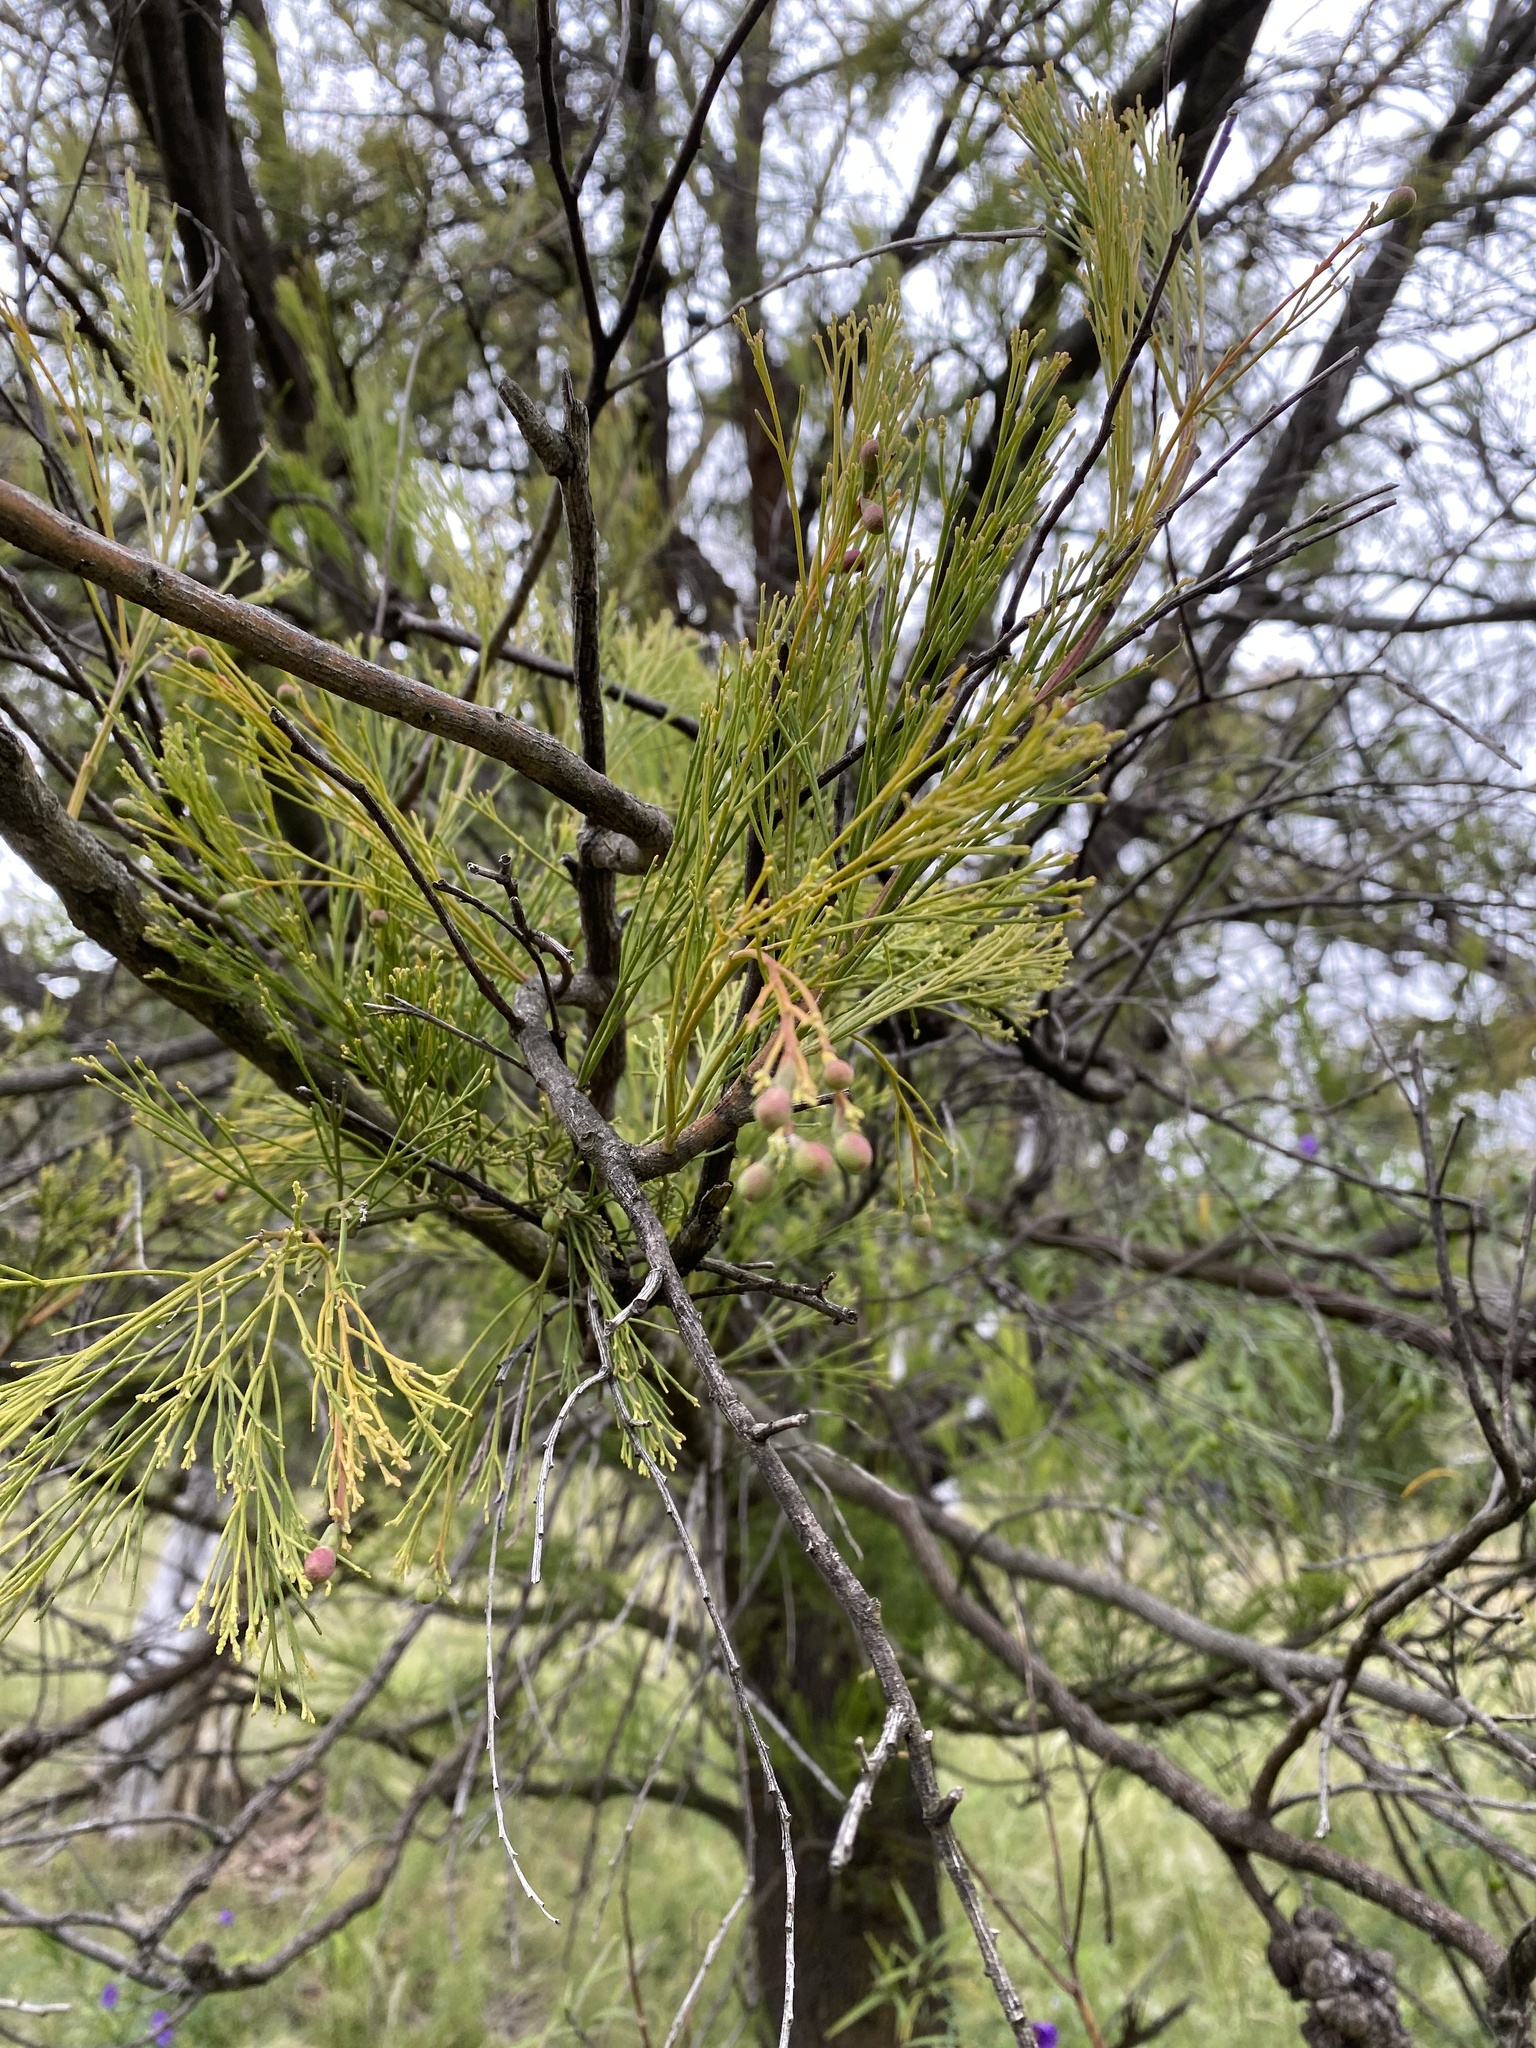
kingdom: Plantae
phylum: Tracheophyta
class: Magnoliopsida
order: Santalales
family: Santalaceae
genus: Exocarpos
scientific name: Exocarpos cupressiformis
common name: Cherry ballart
